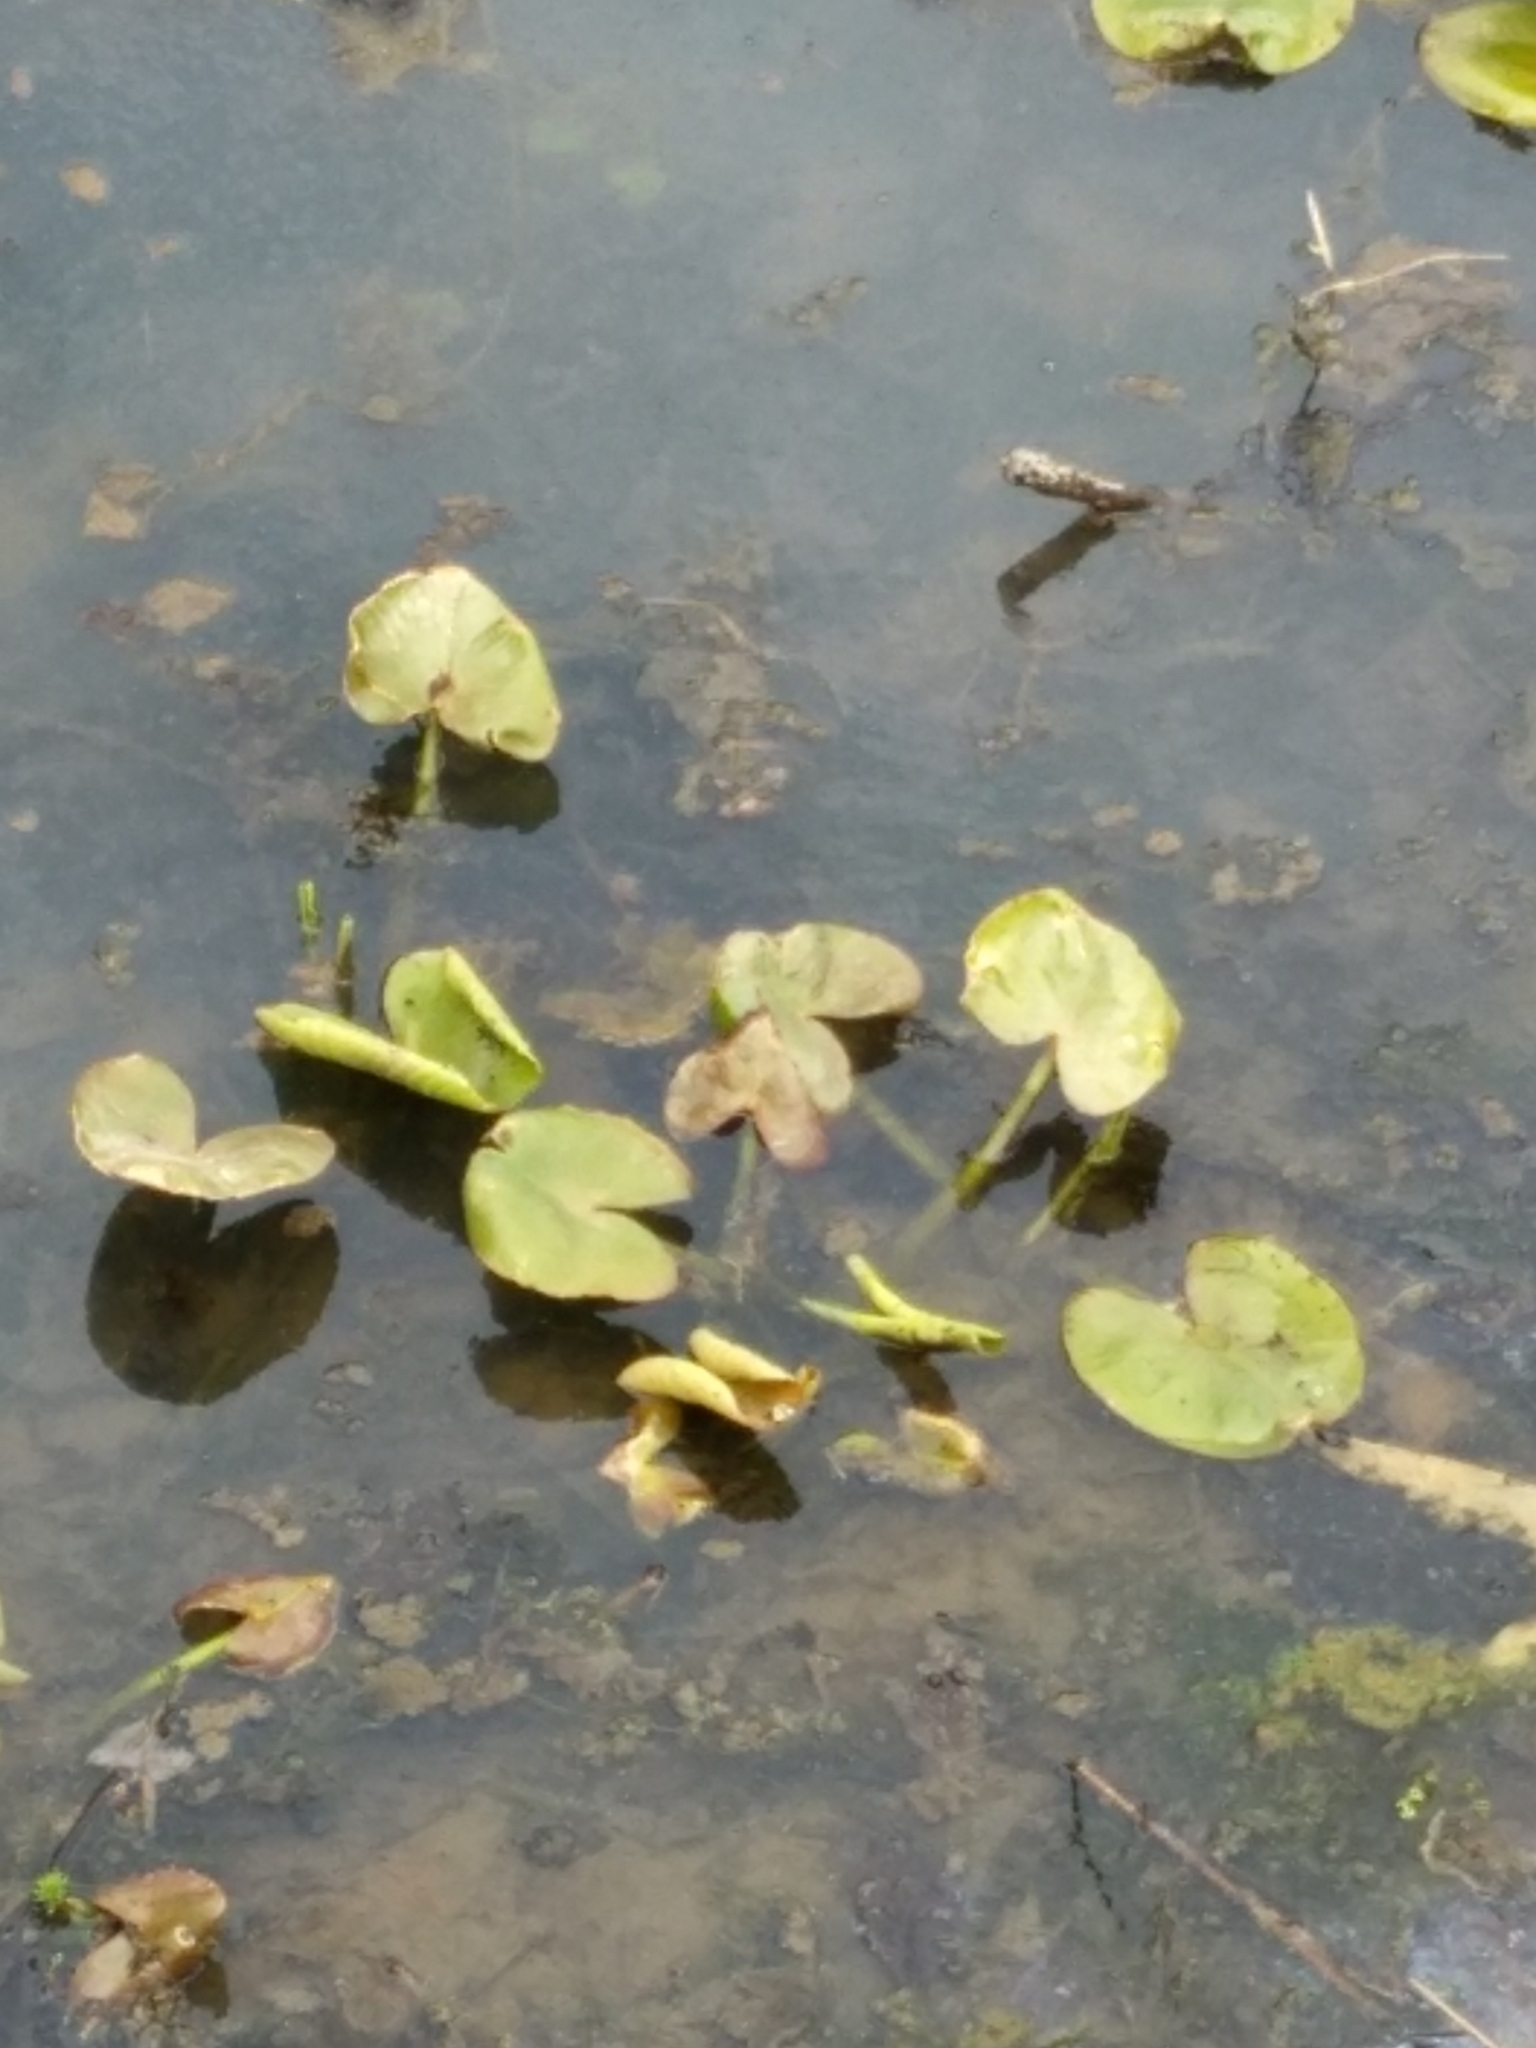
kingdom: Plantae
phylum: Tracheophyta
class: Magnoliopsida
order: Nymphaeales
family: Nymphaeaceae
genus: Nuphar
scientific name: Nuphar advena
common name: Spatter-dock
